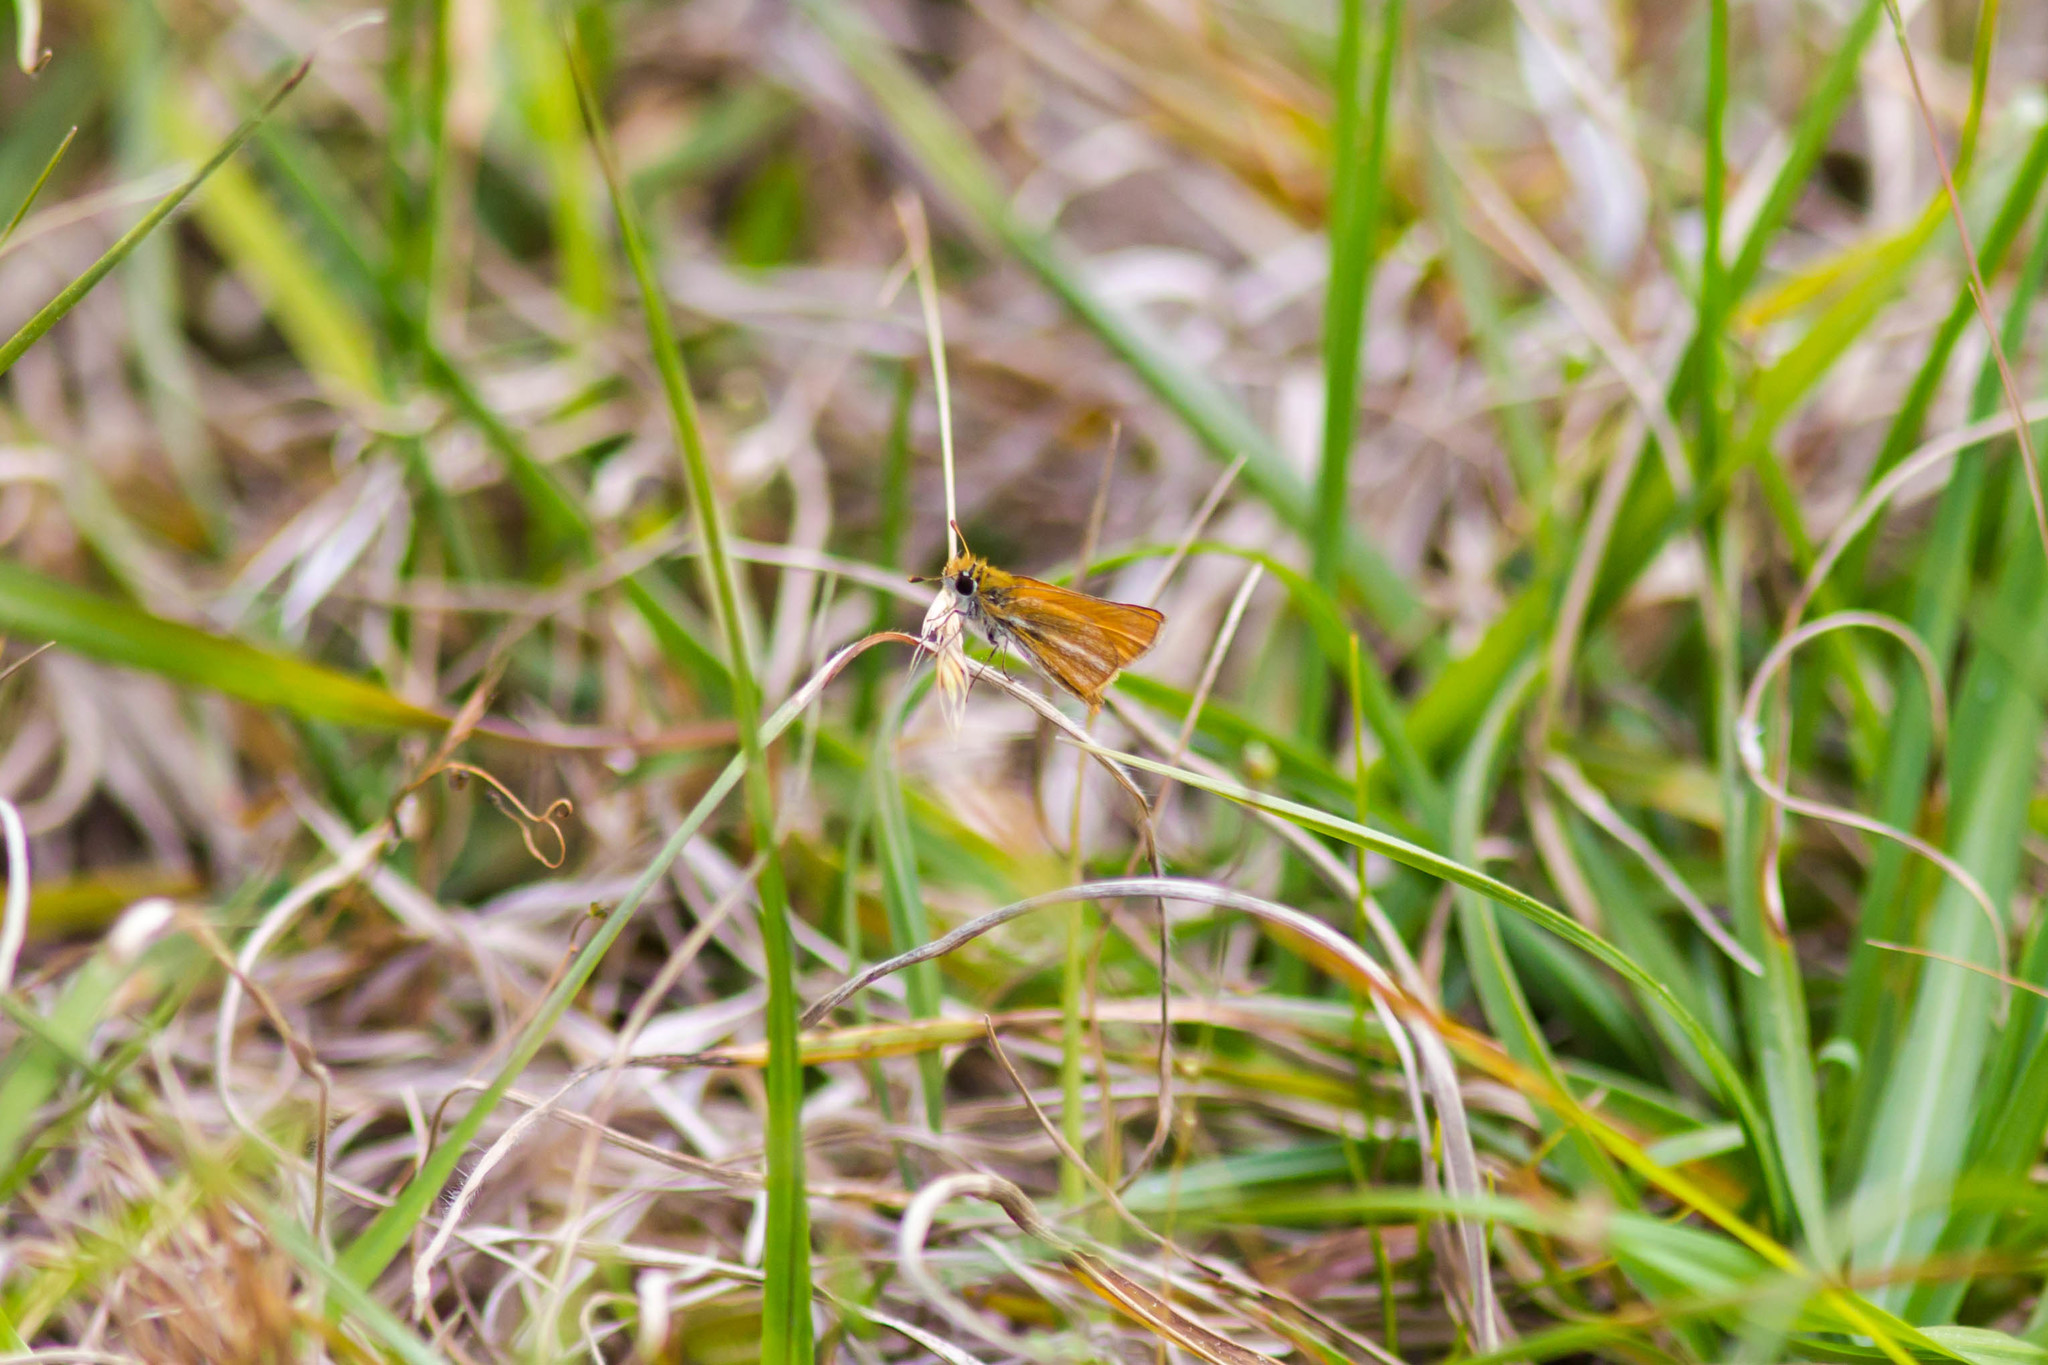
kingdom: Animalia
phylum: Arthropoda
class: Insecta
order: Lepidoptera
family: Hesperiidae
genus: Copaeodes
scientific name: Copaeodes minima
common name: Southern skipperling
